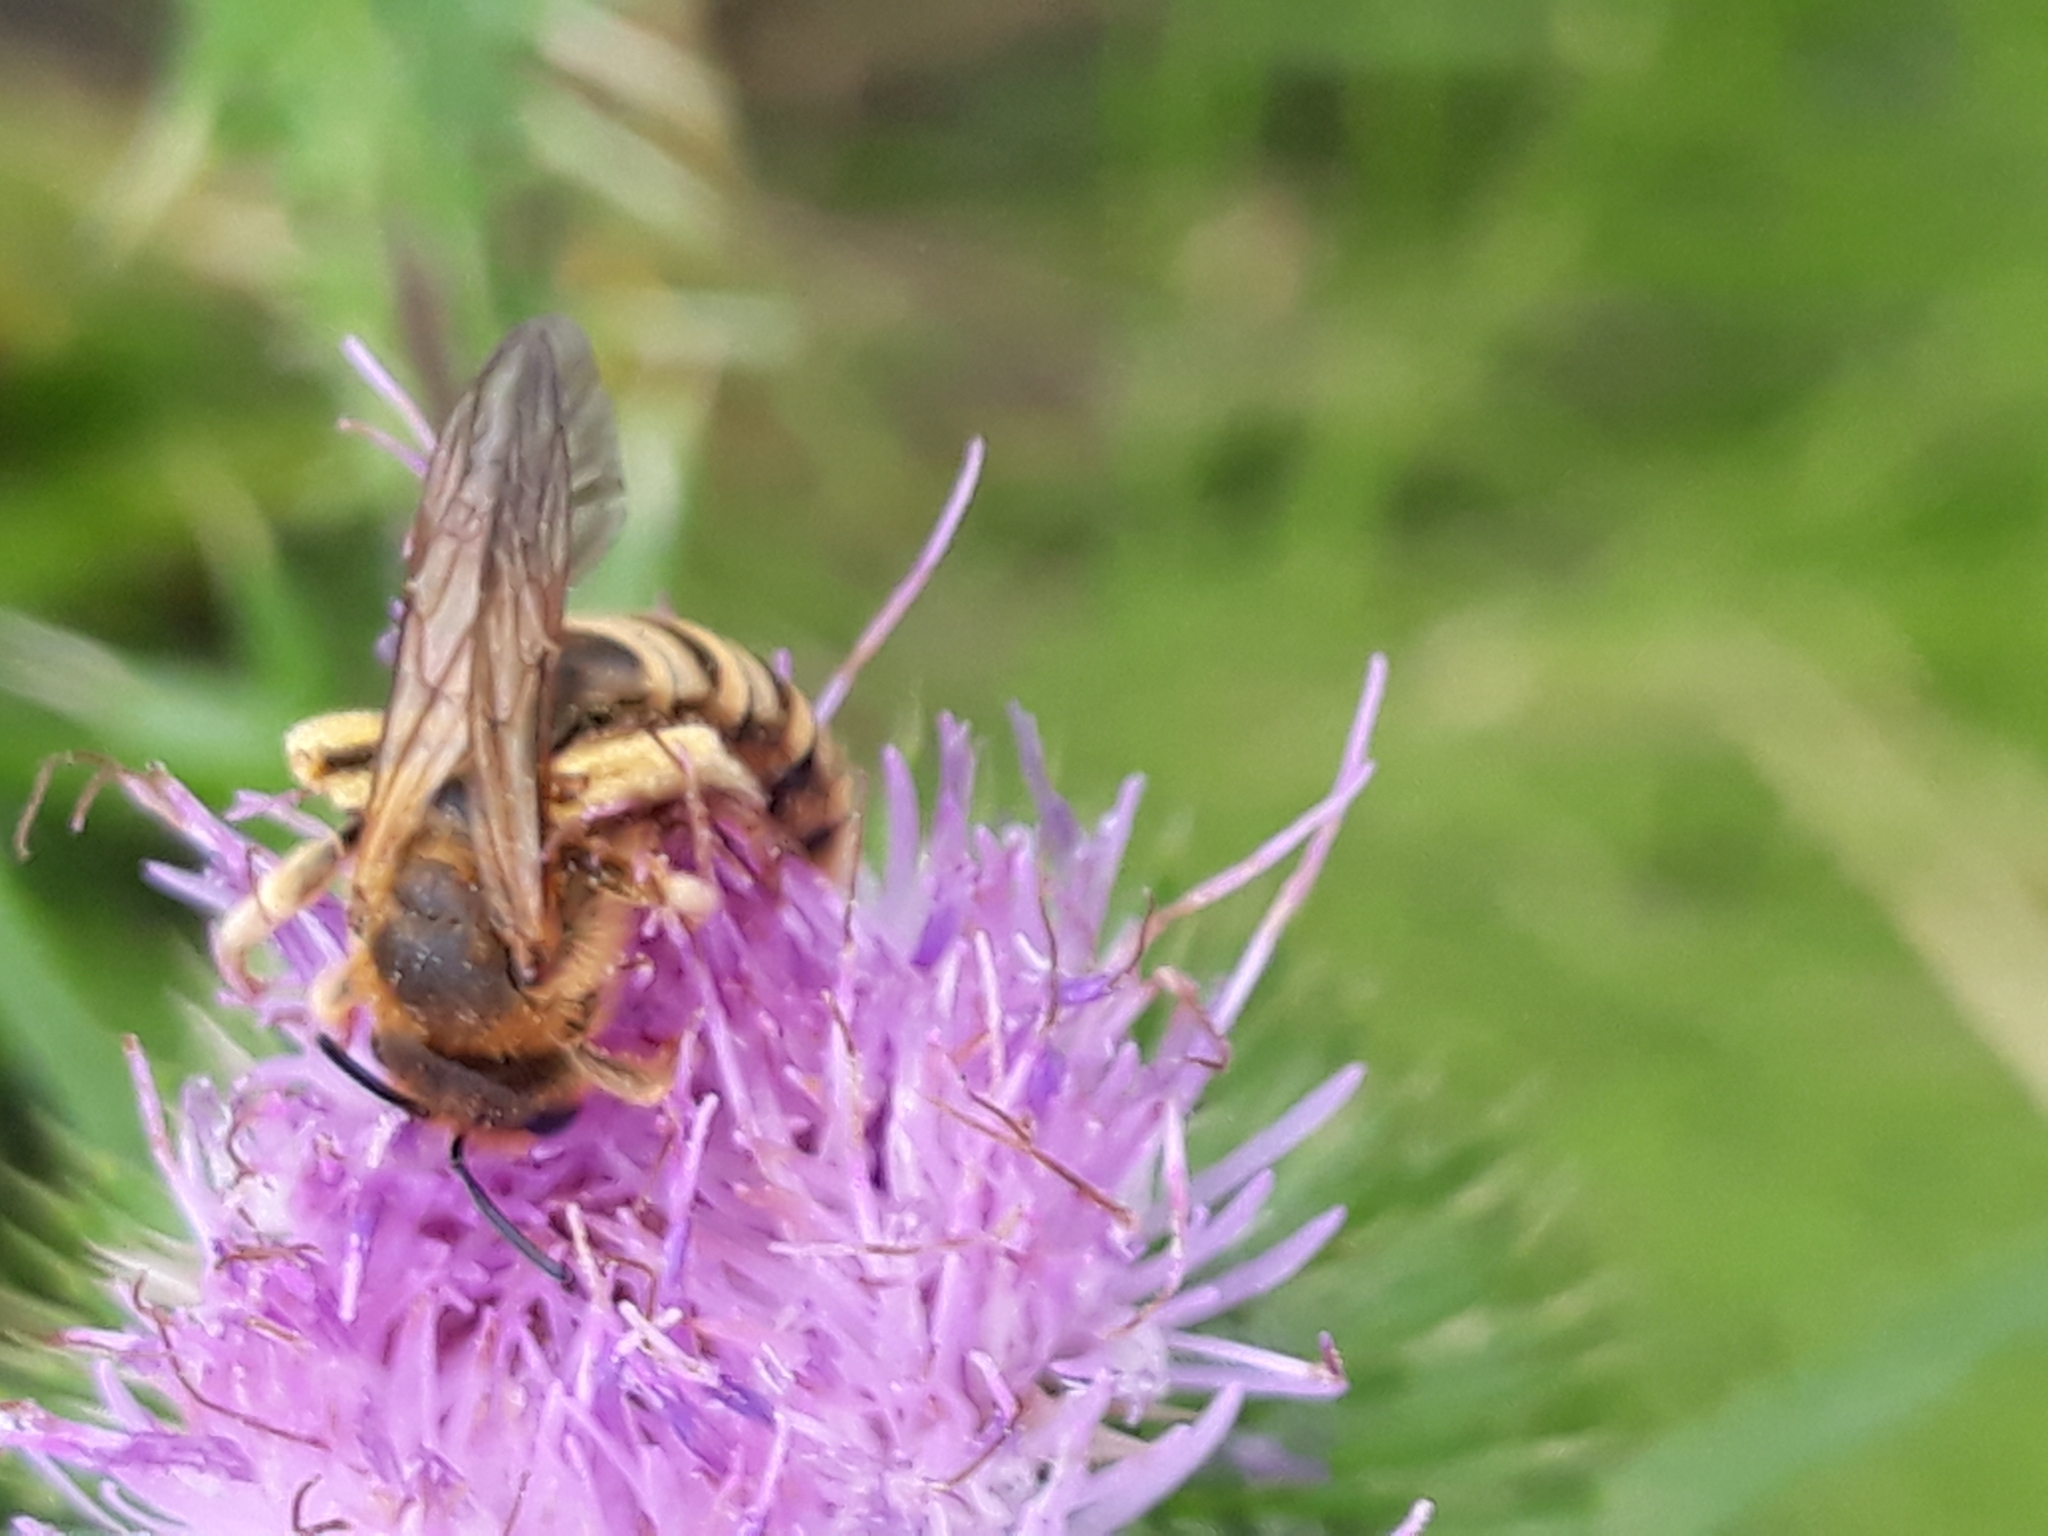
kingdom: Animalia
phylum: Arthropoda
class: Insecta
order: Hymenoptera
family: Halictidae
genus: Halictus
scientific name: Halictus scabiosae
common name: Great banded furrow bee
